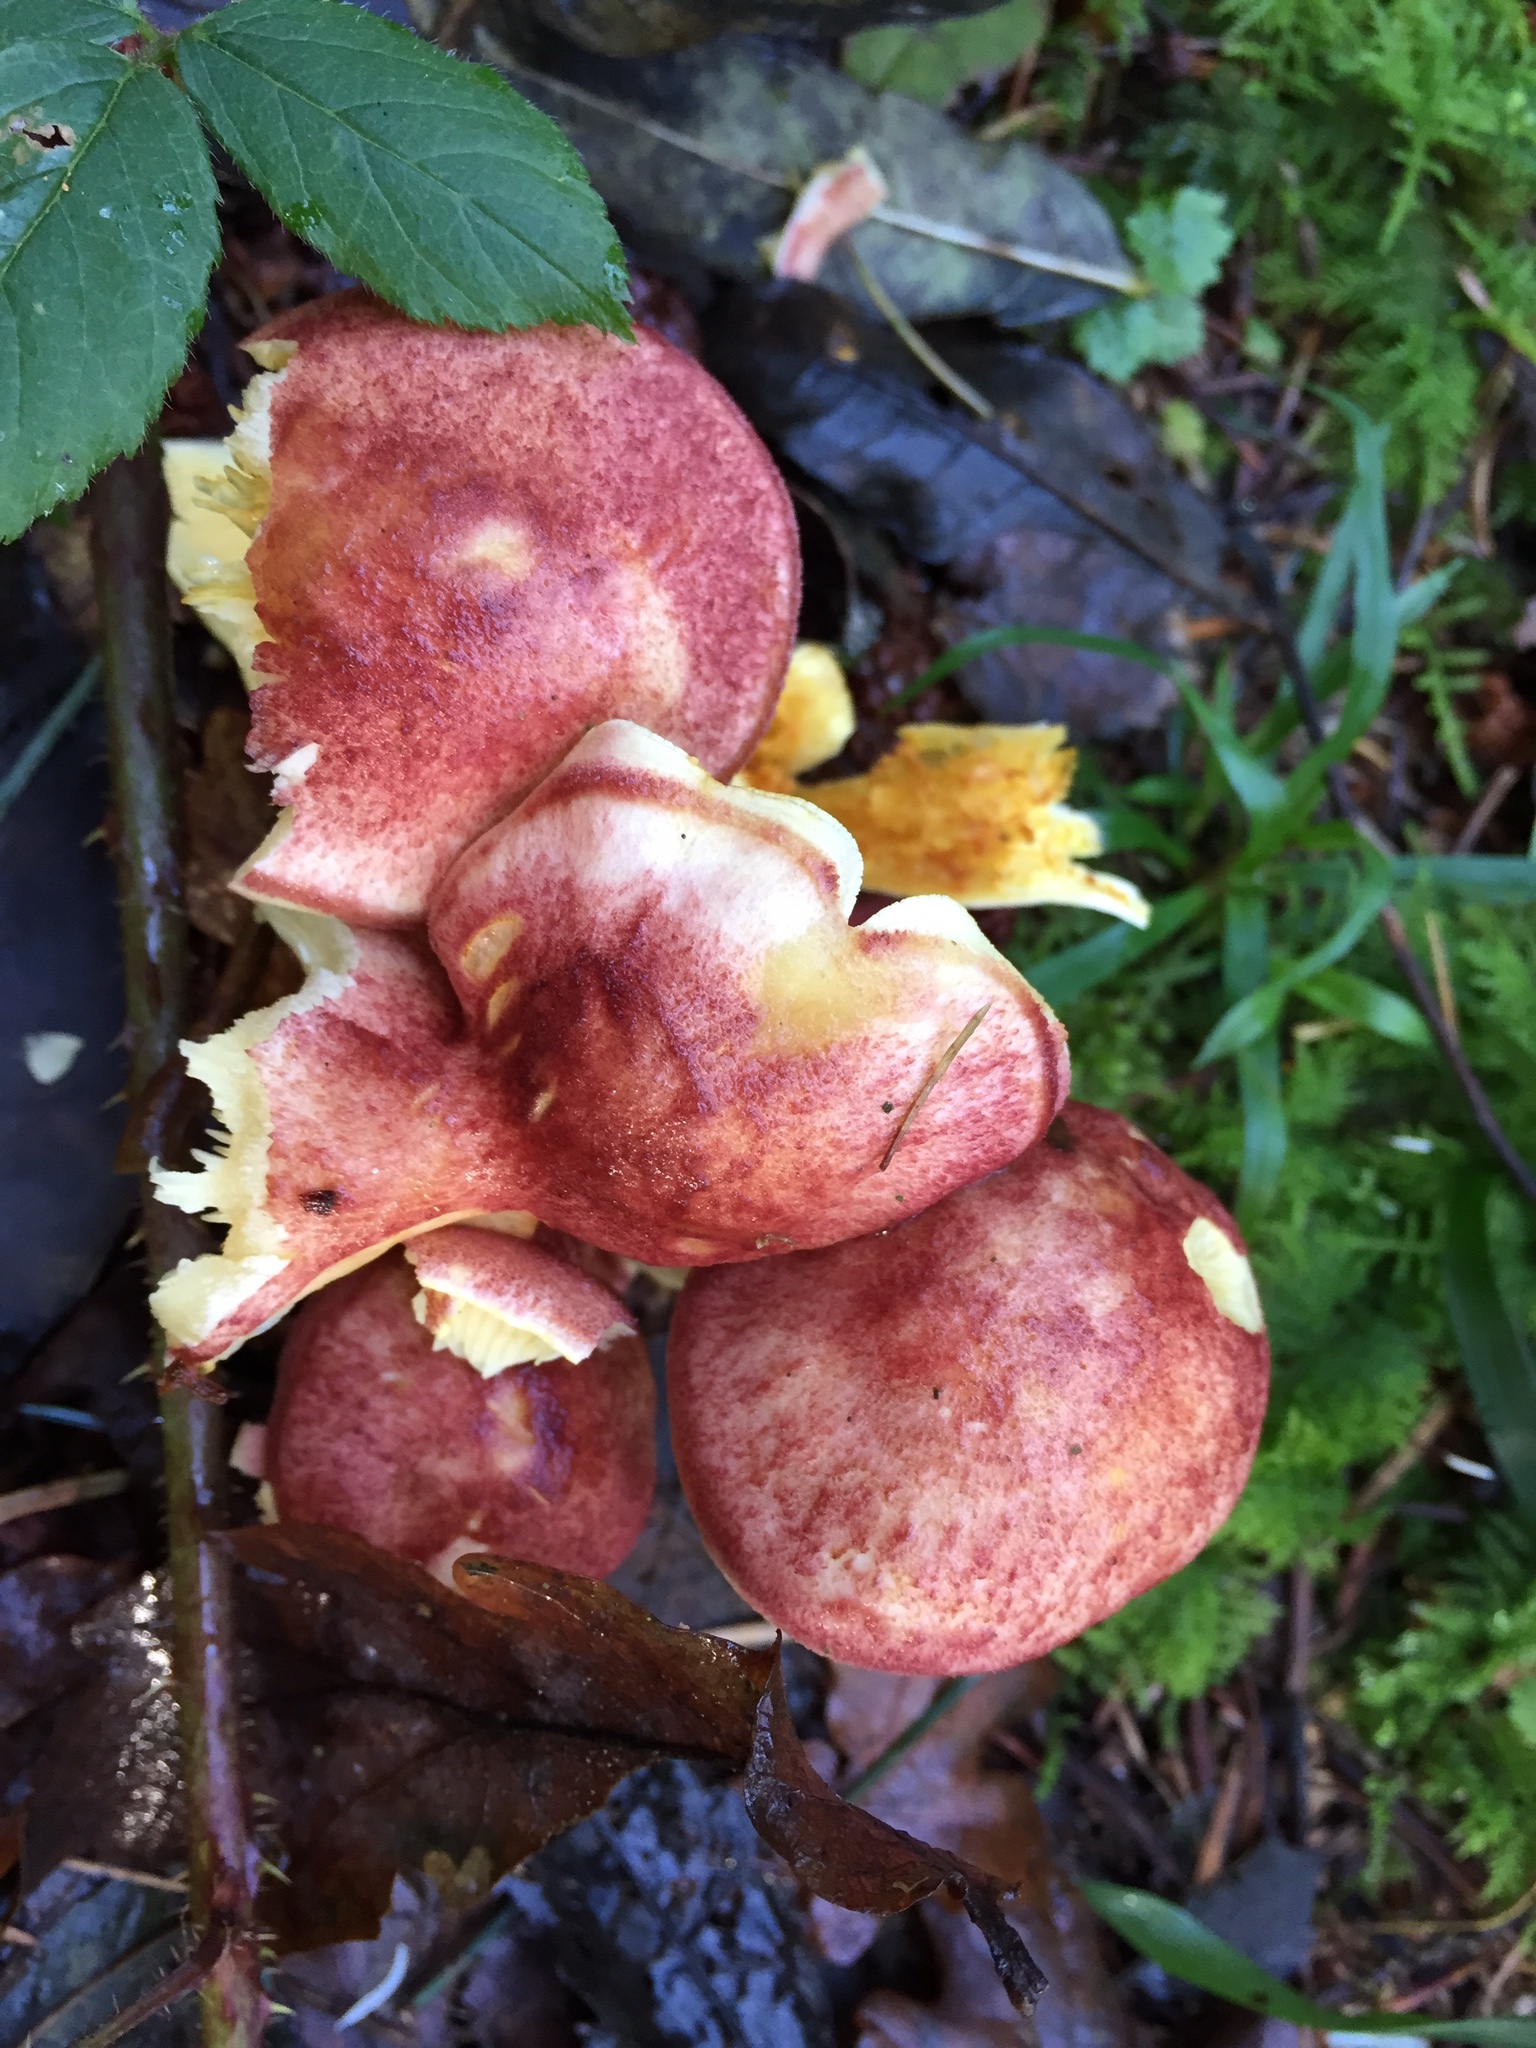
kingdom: Fungi
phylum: Basidiomycota
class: Agaricomycetes
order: Agaricales
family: Tricholomataceae
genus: Tricholomopsis
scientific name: Tricholomopsis rutilans
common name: Plums and custard
